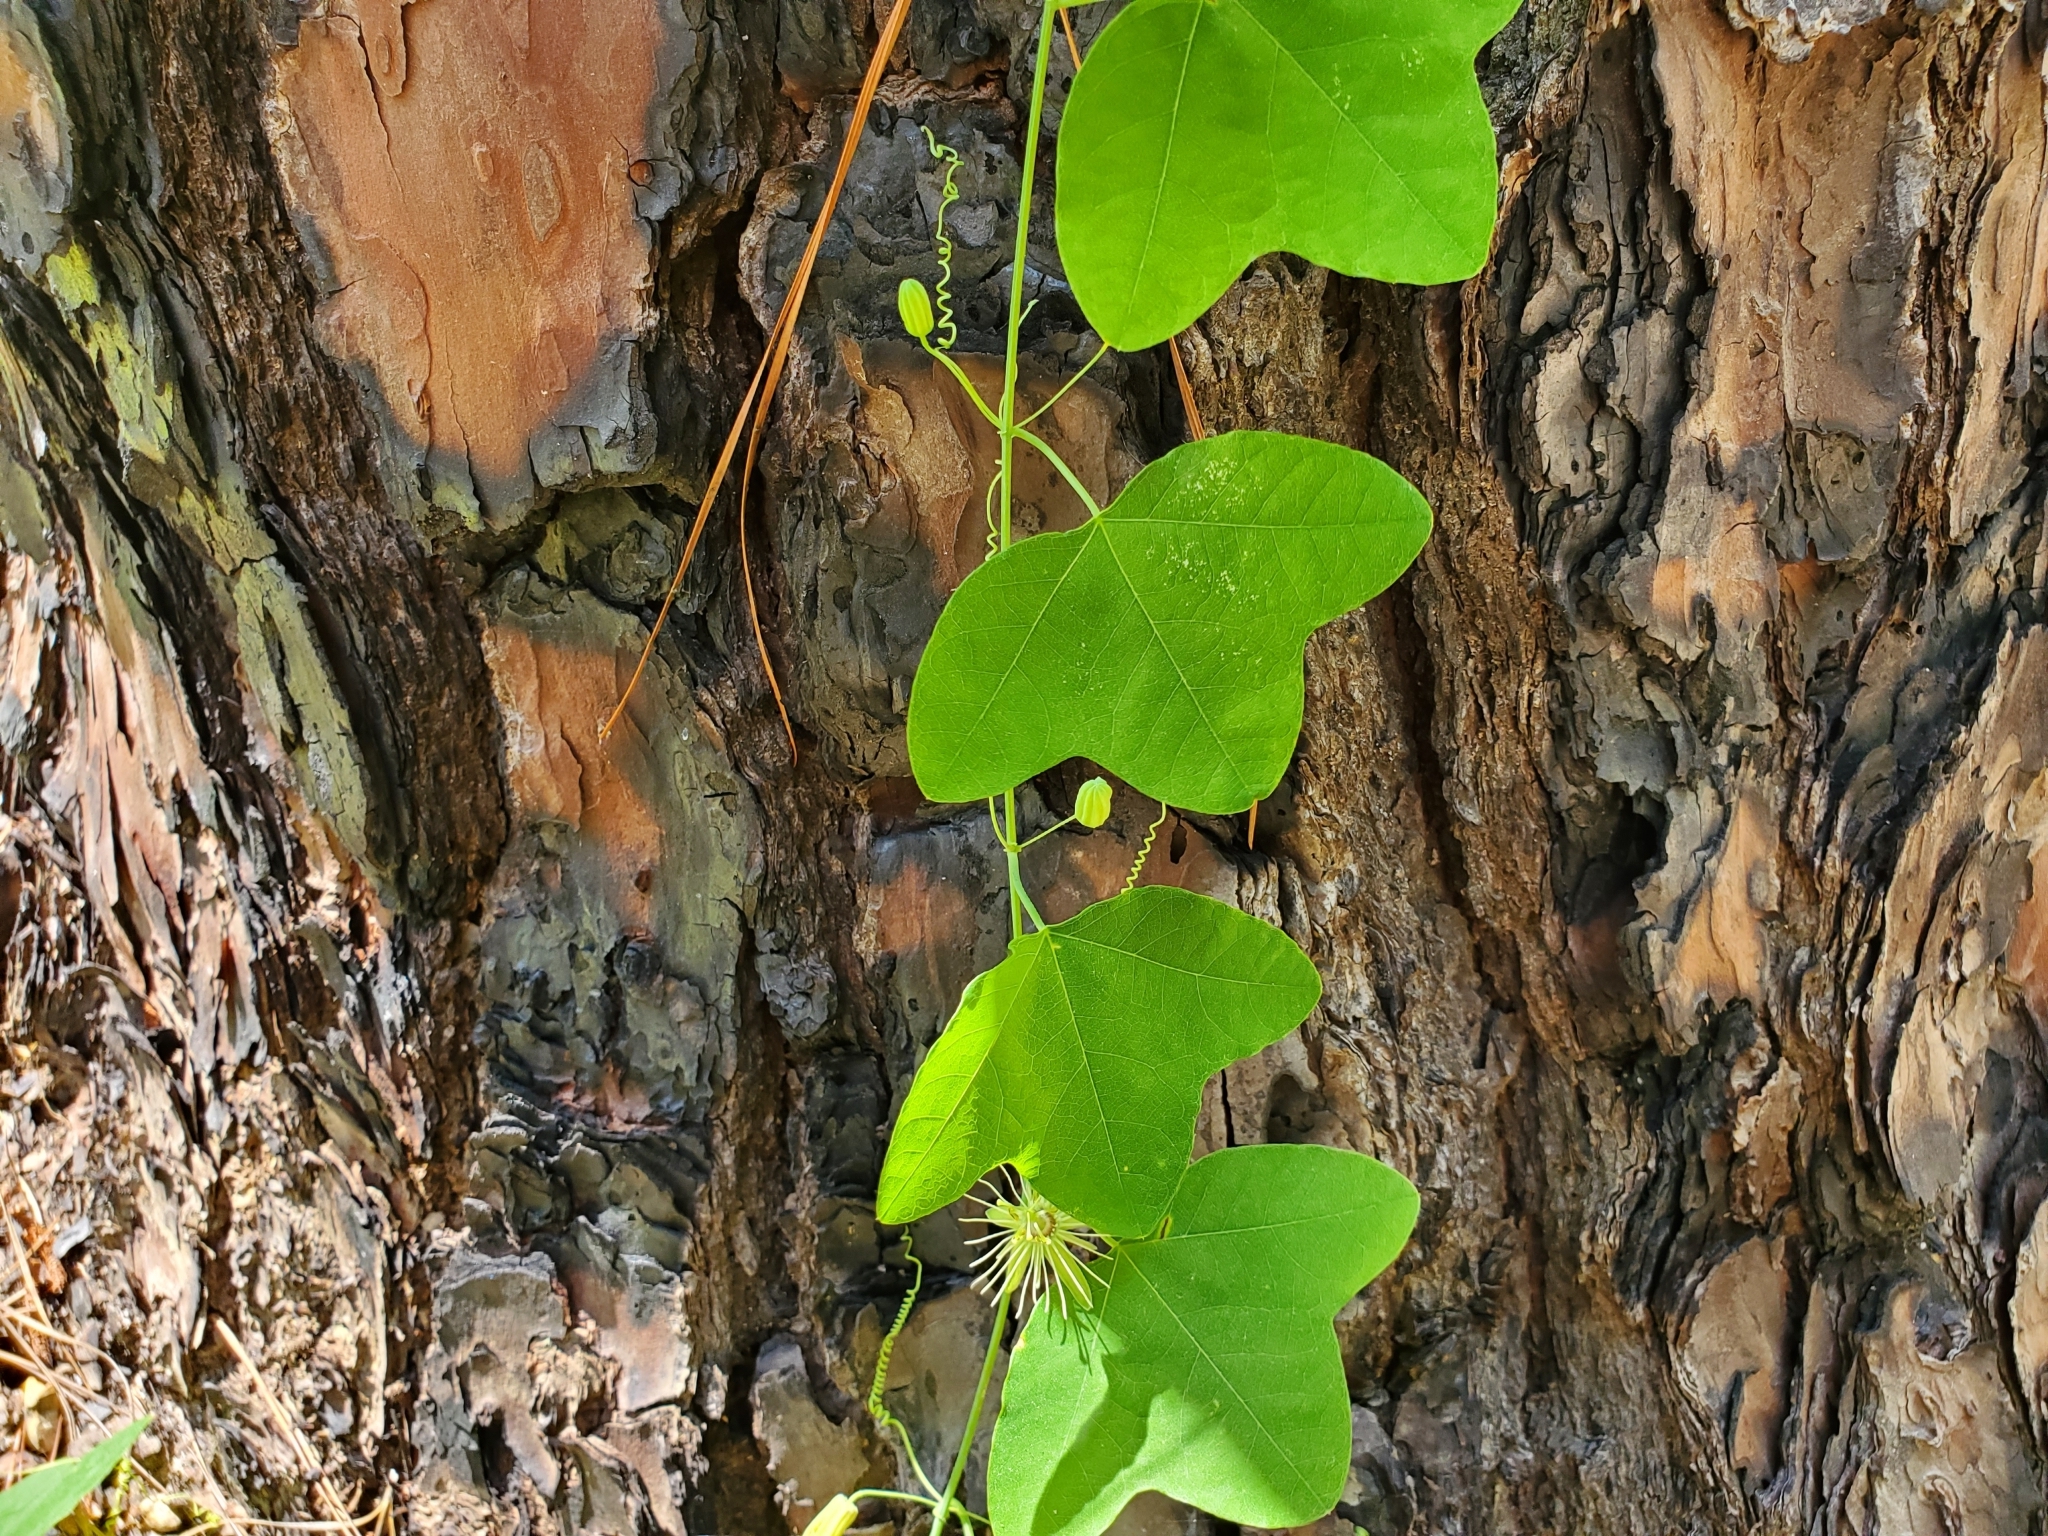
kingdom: Plantae
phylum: Tracheophyta
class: Magnoliopsida
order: Malpighiales
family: Passifloraceae
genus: Passiflora
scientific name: Passiflora lutea
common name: Yellow passionflower
